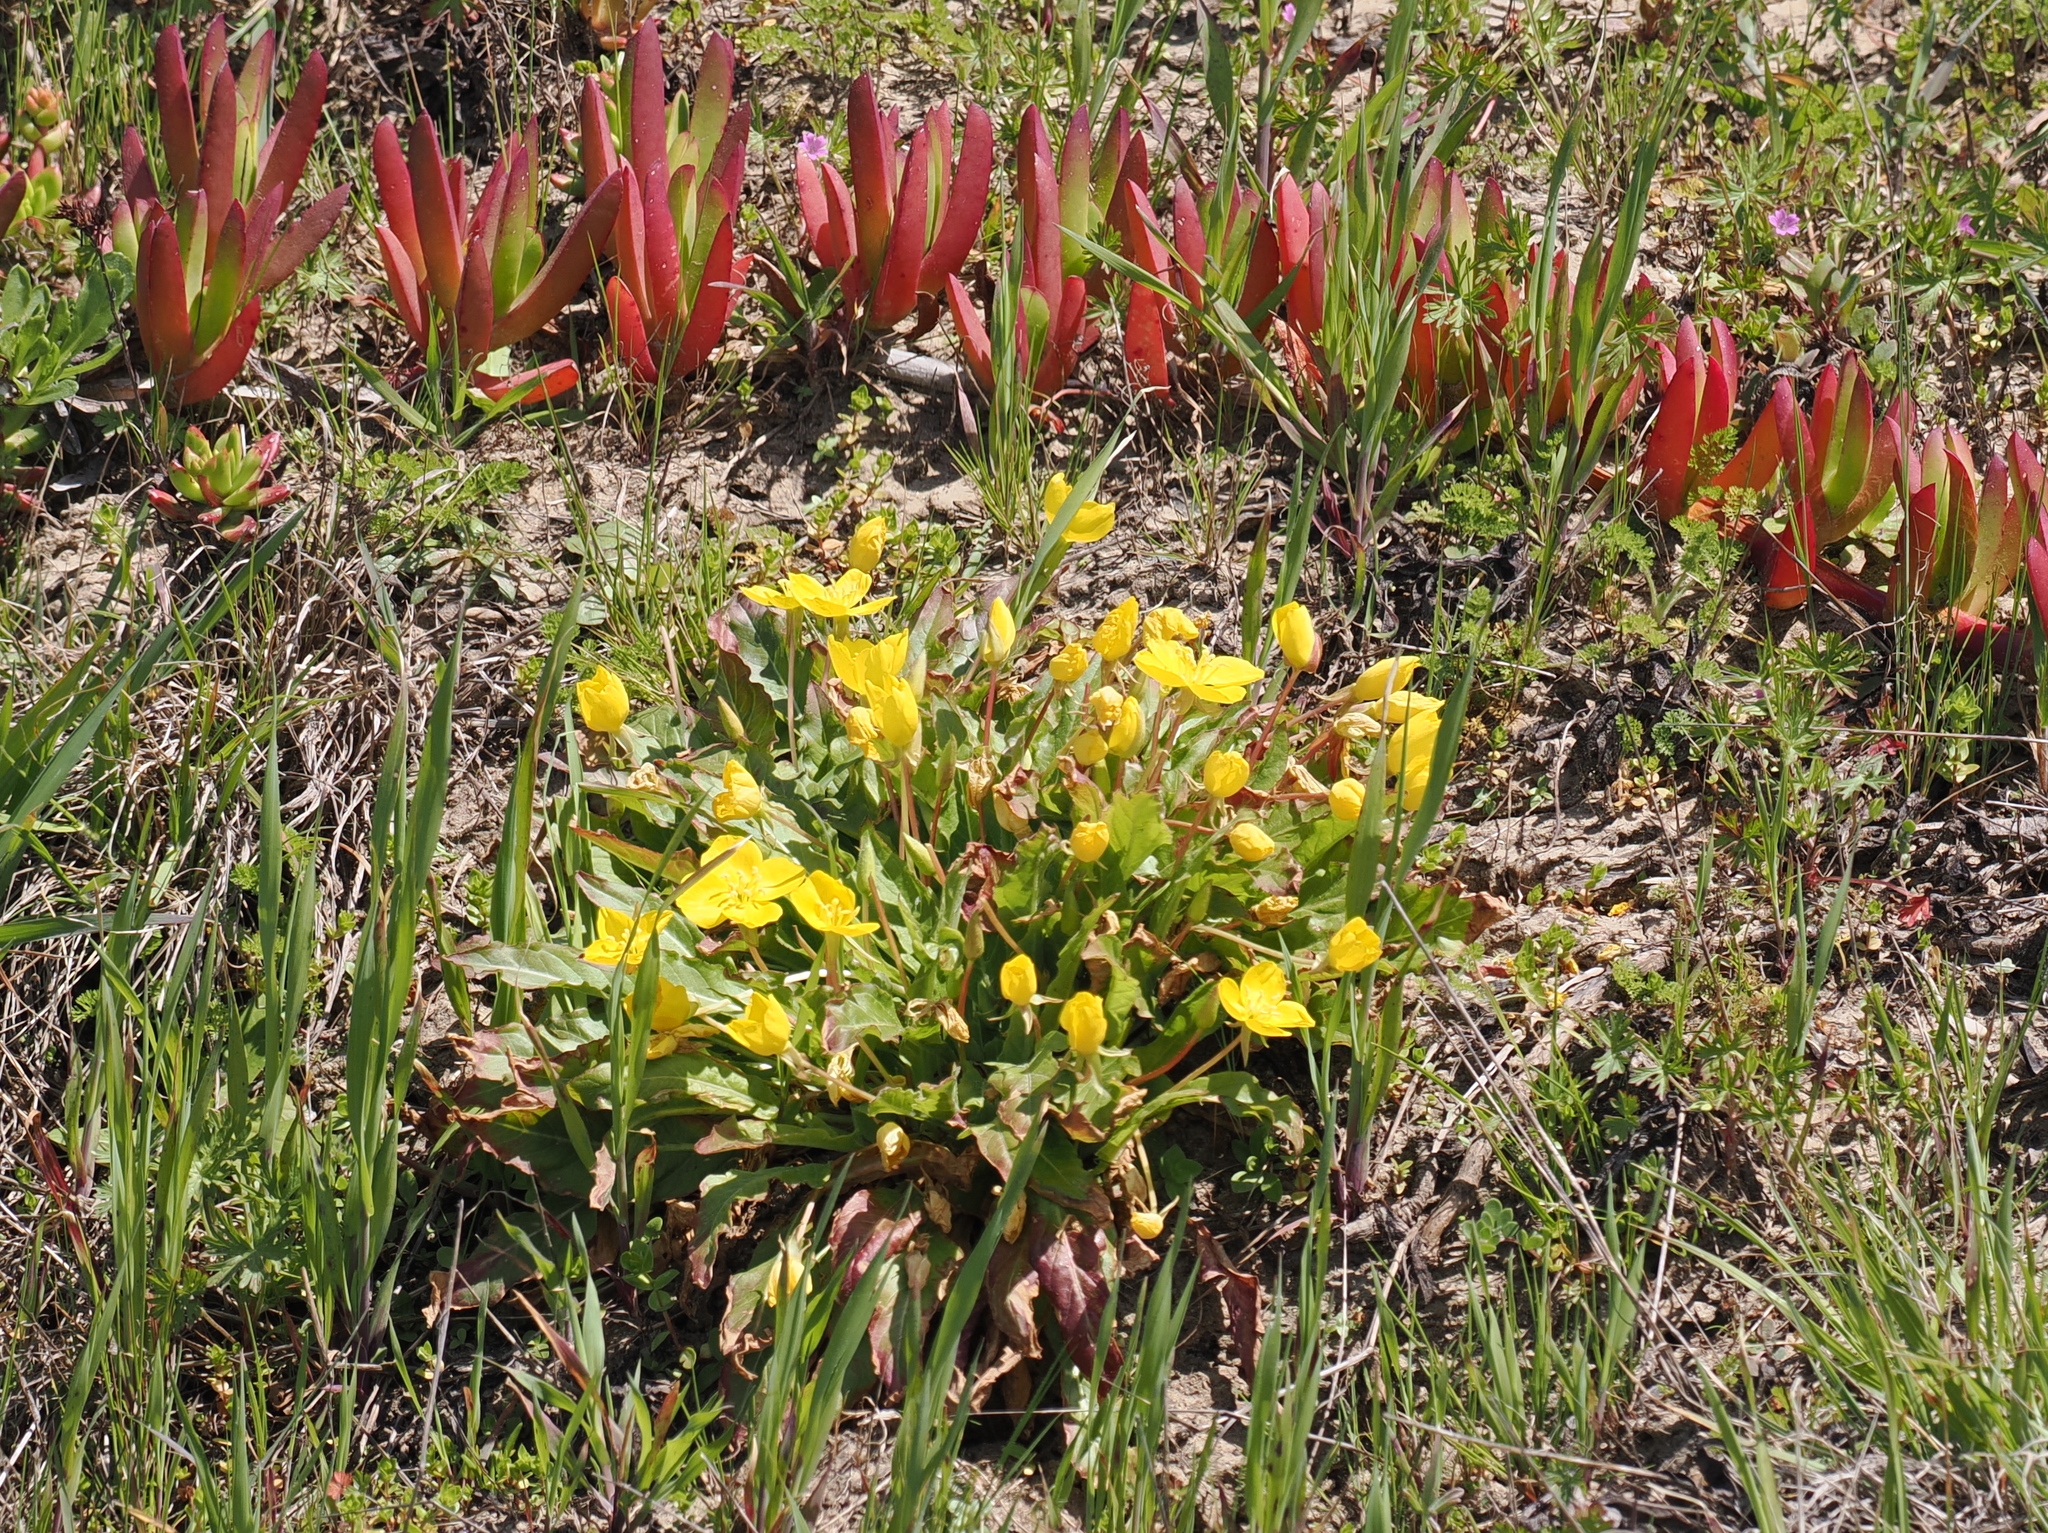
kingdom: Plantae
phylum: Tracheophyta
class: Magnoliopsida
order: Myrtales
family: Onagraceae
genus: Taraxia
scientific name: Taraxia ovata
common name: Goldeneggs
